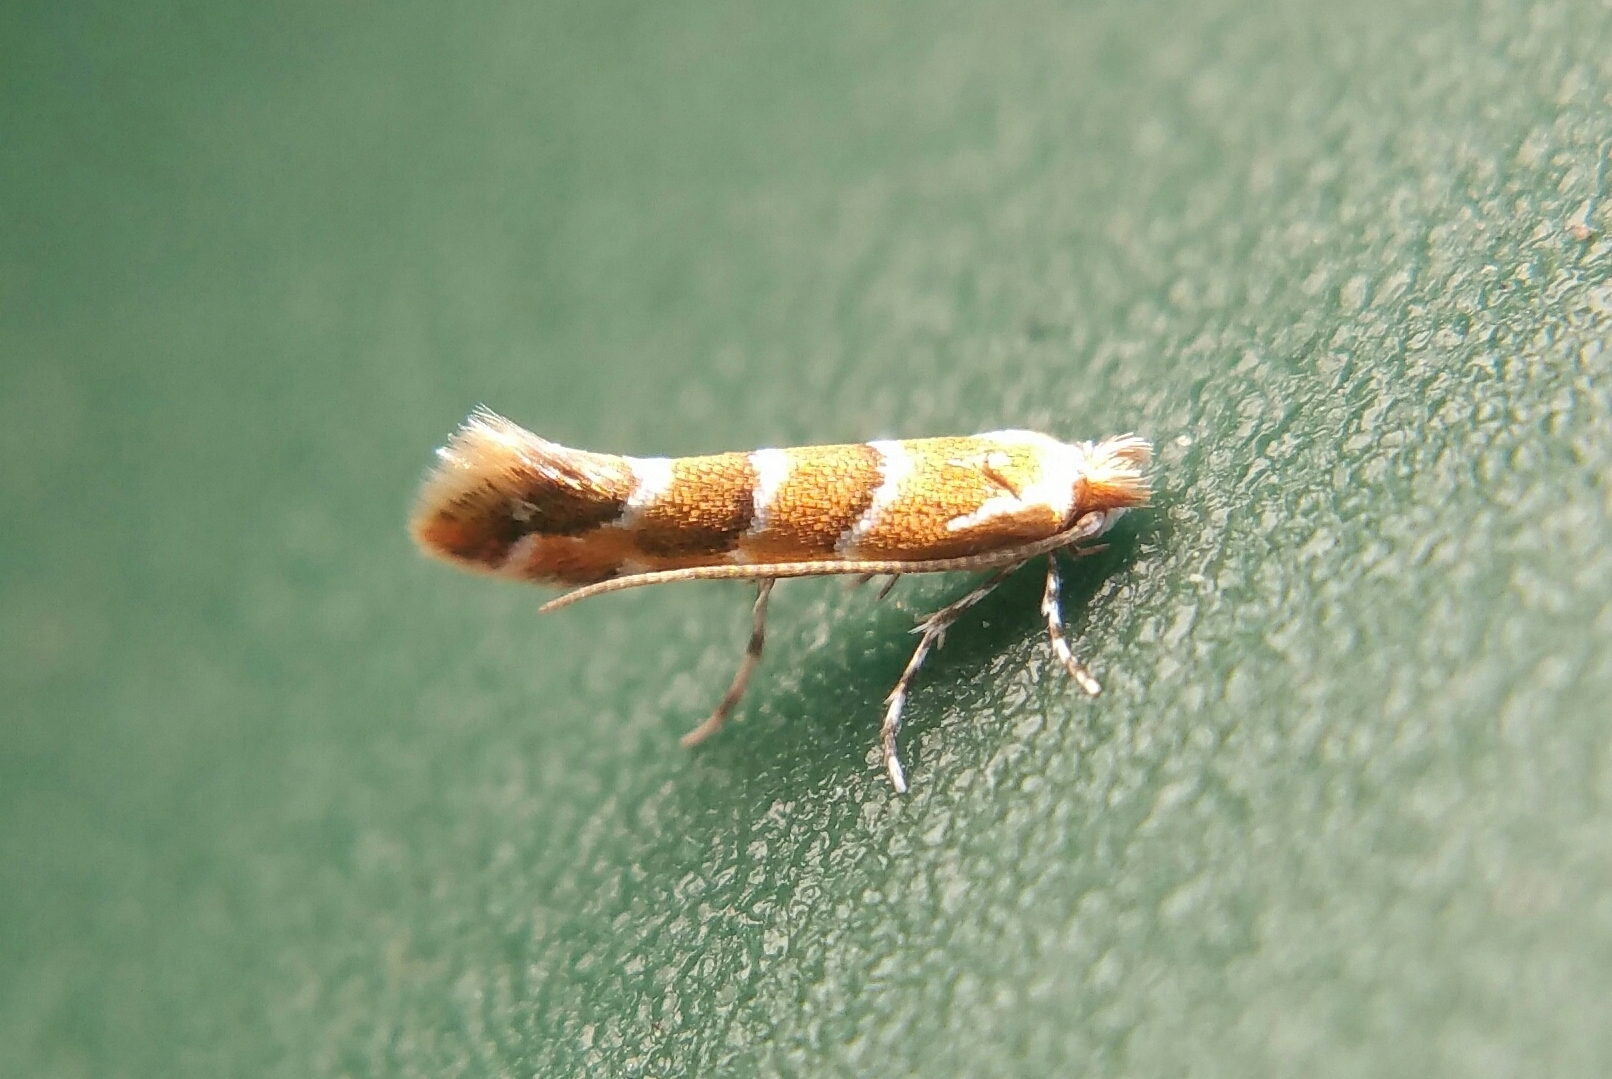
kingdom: Animalia
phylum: Arthropoda
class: Insecta
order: Lepidoptera
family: Gracillariidae
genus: Cameraria
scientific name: Cameraria ohridella
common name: Horse-chestnut leaf-miner
